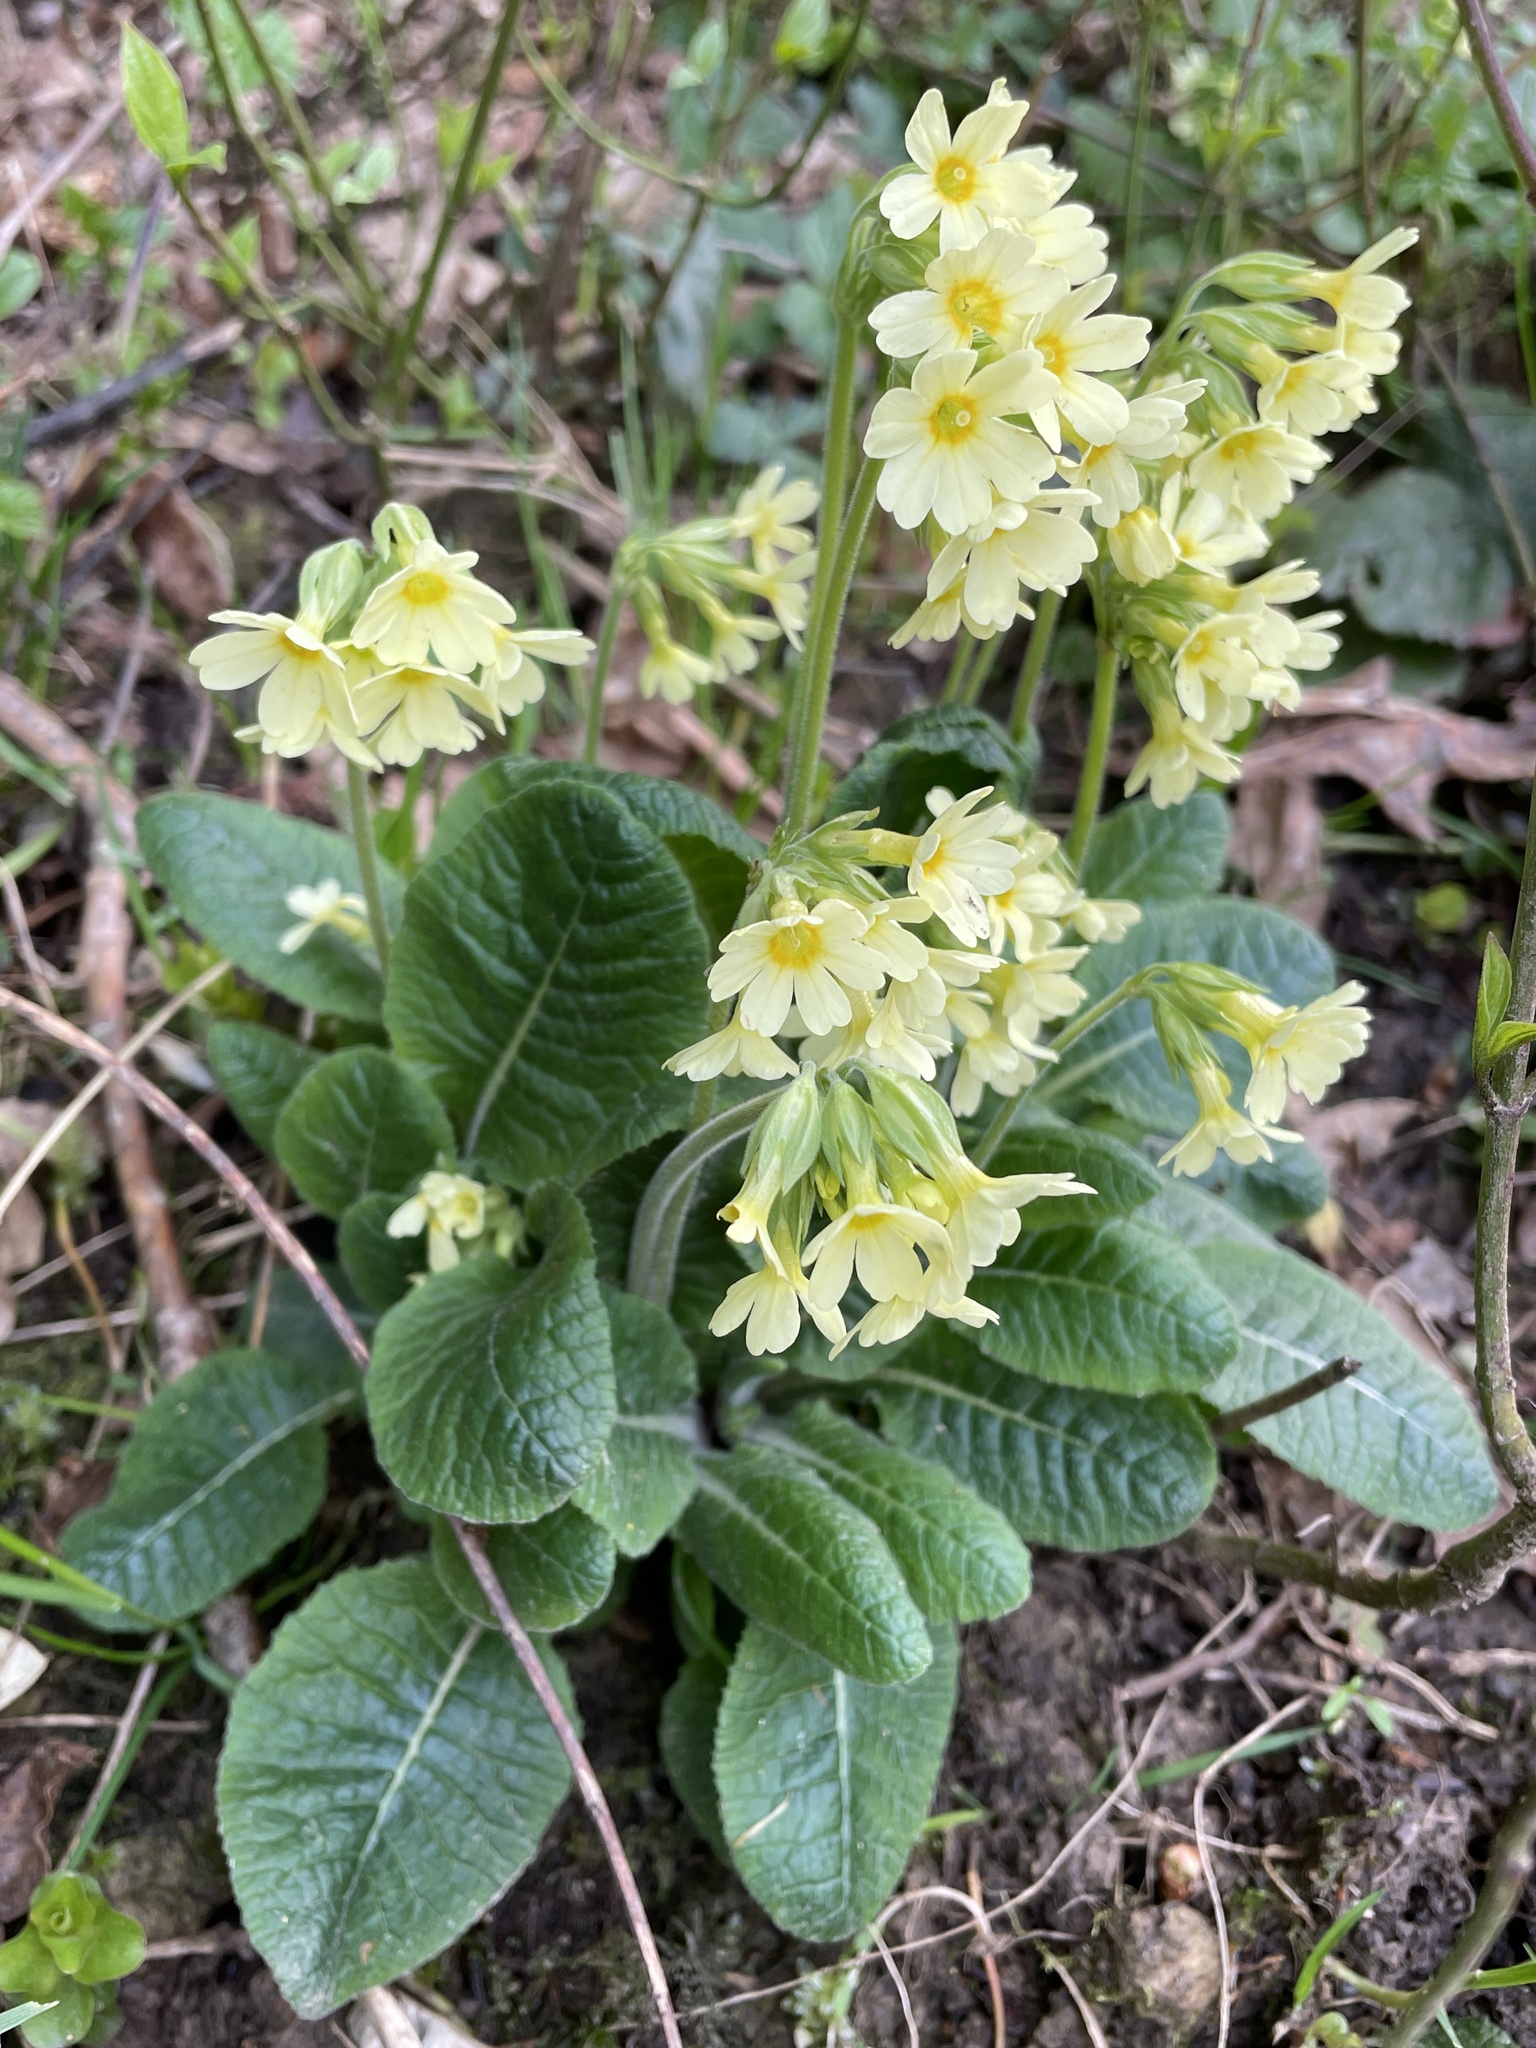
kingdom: Plantae
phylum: Tracheophyta
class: Magnoliopsida
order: Ericales
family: Primulaceae
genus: Primula
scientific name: Primula elatior
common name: Oxlip
